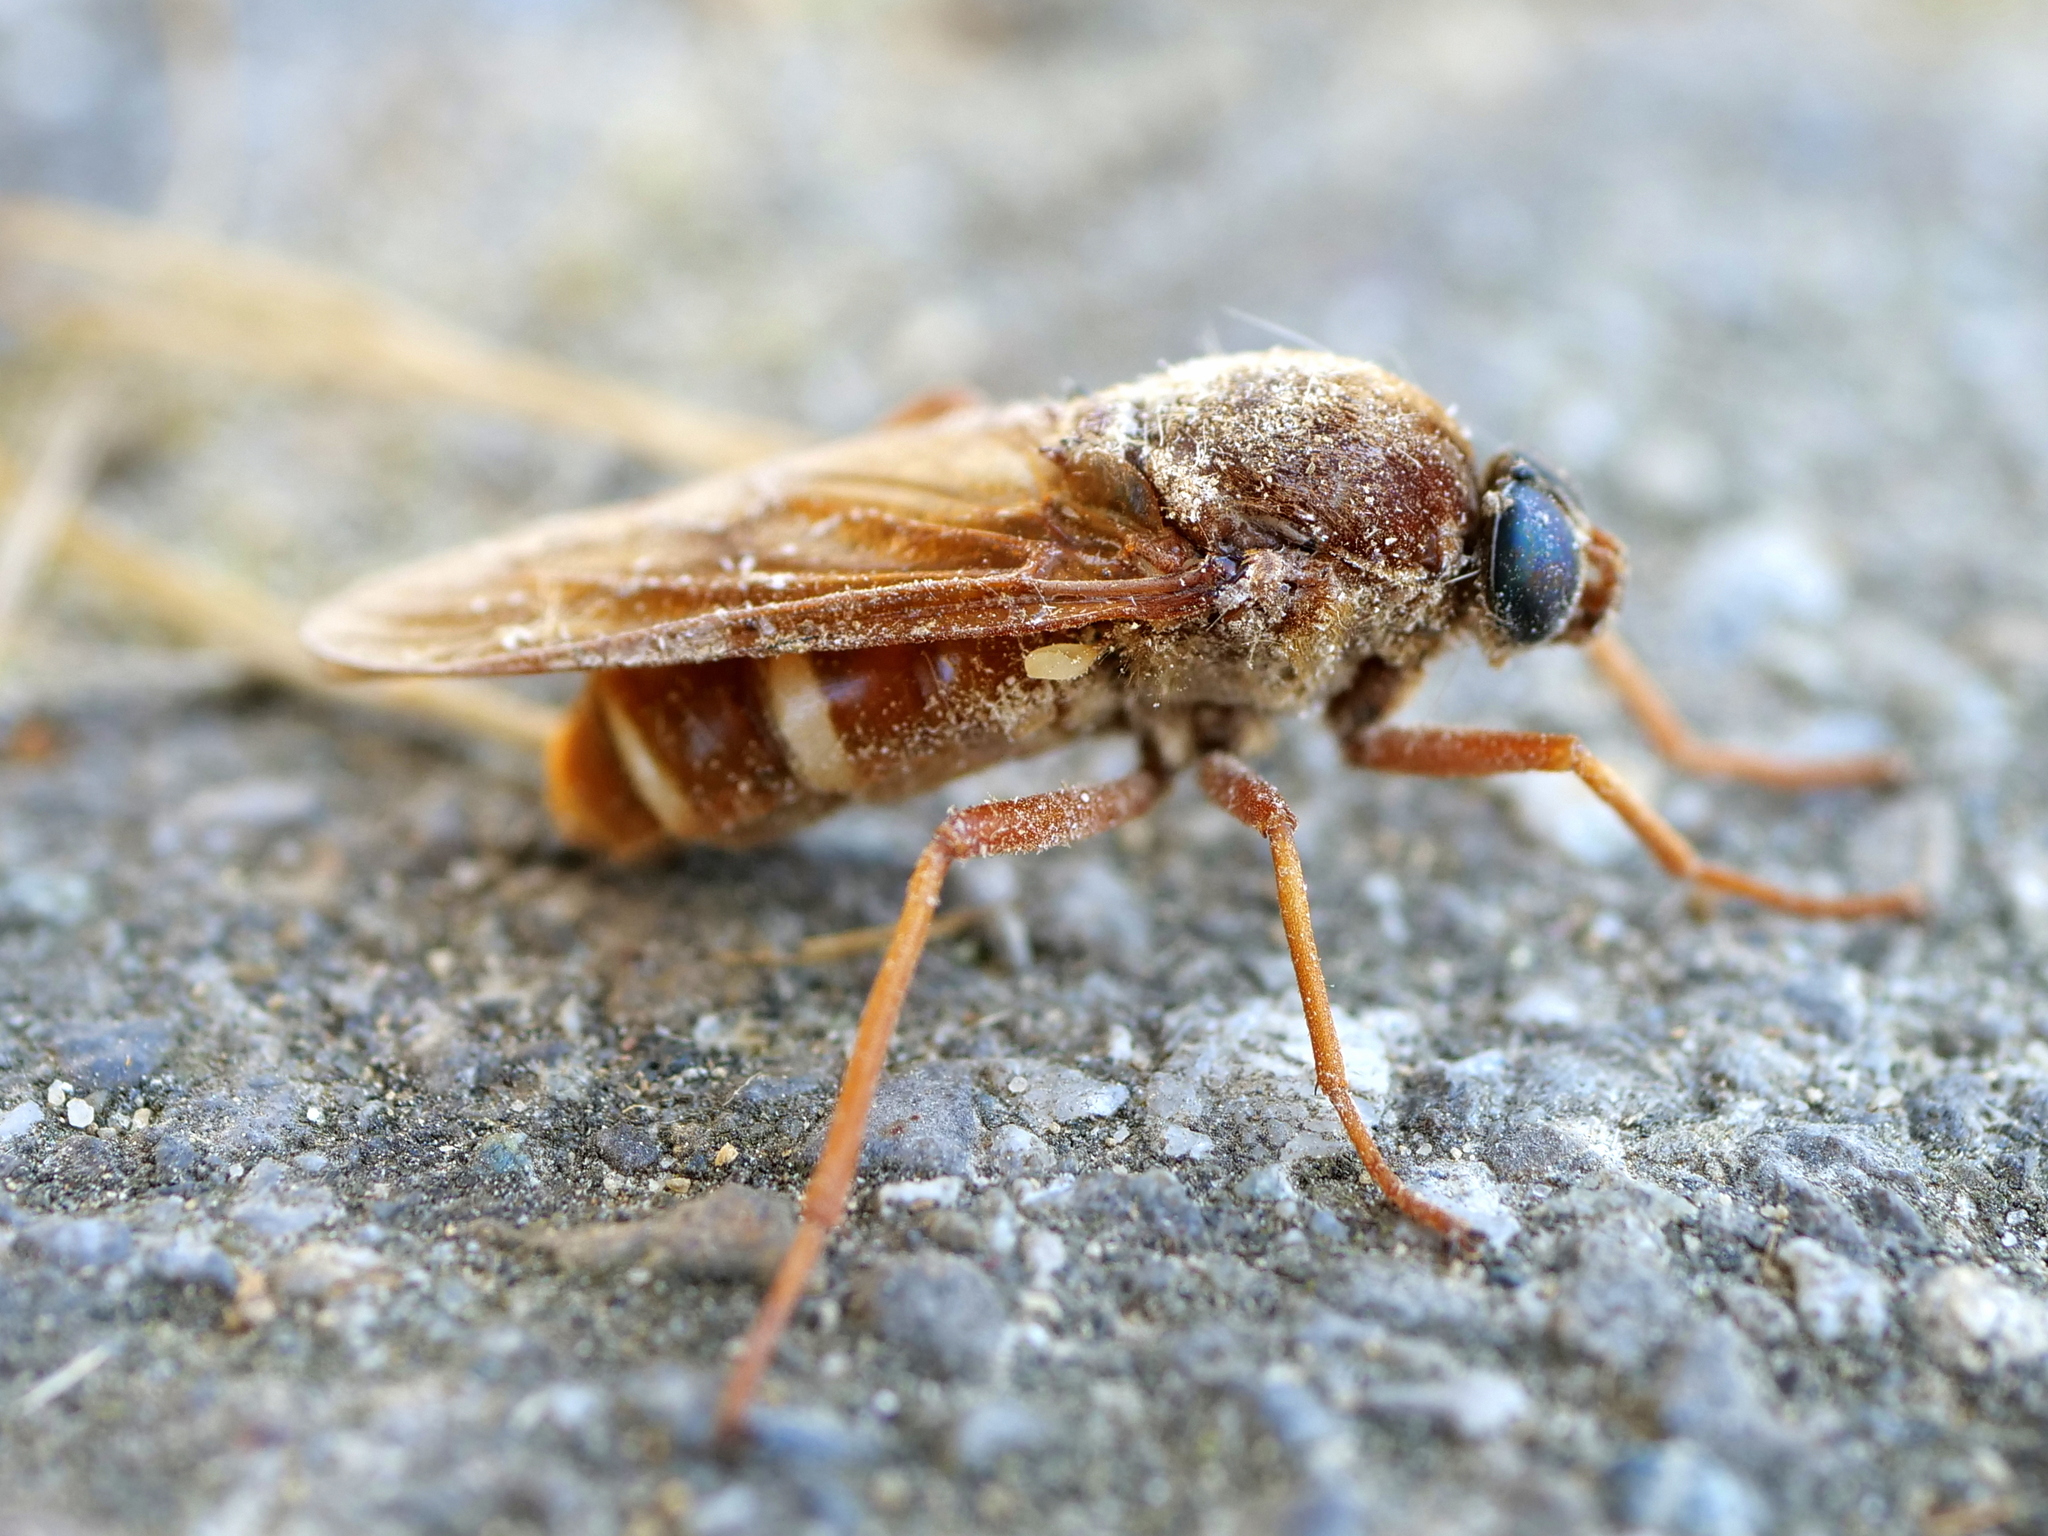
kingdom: Animalia
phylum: Arthropoda
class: Insecta
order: Diptera
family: Xylophagidae
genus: Coenomyia
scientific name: Coenomyia ferruginea
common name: Stink fly
